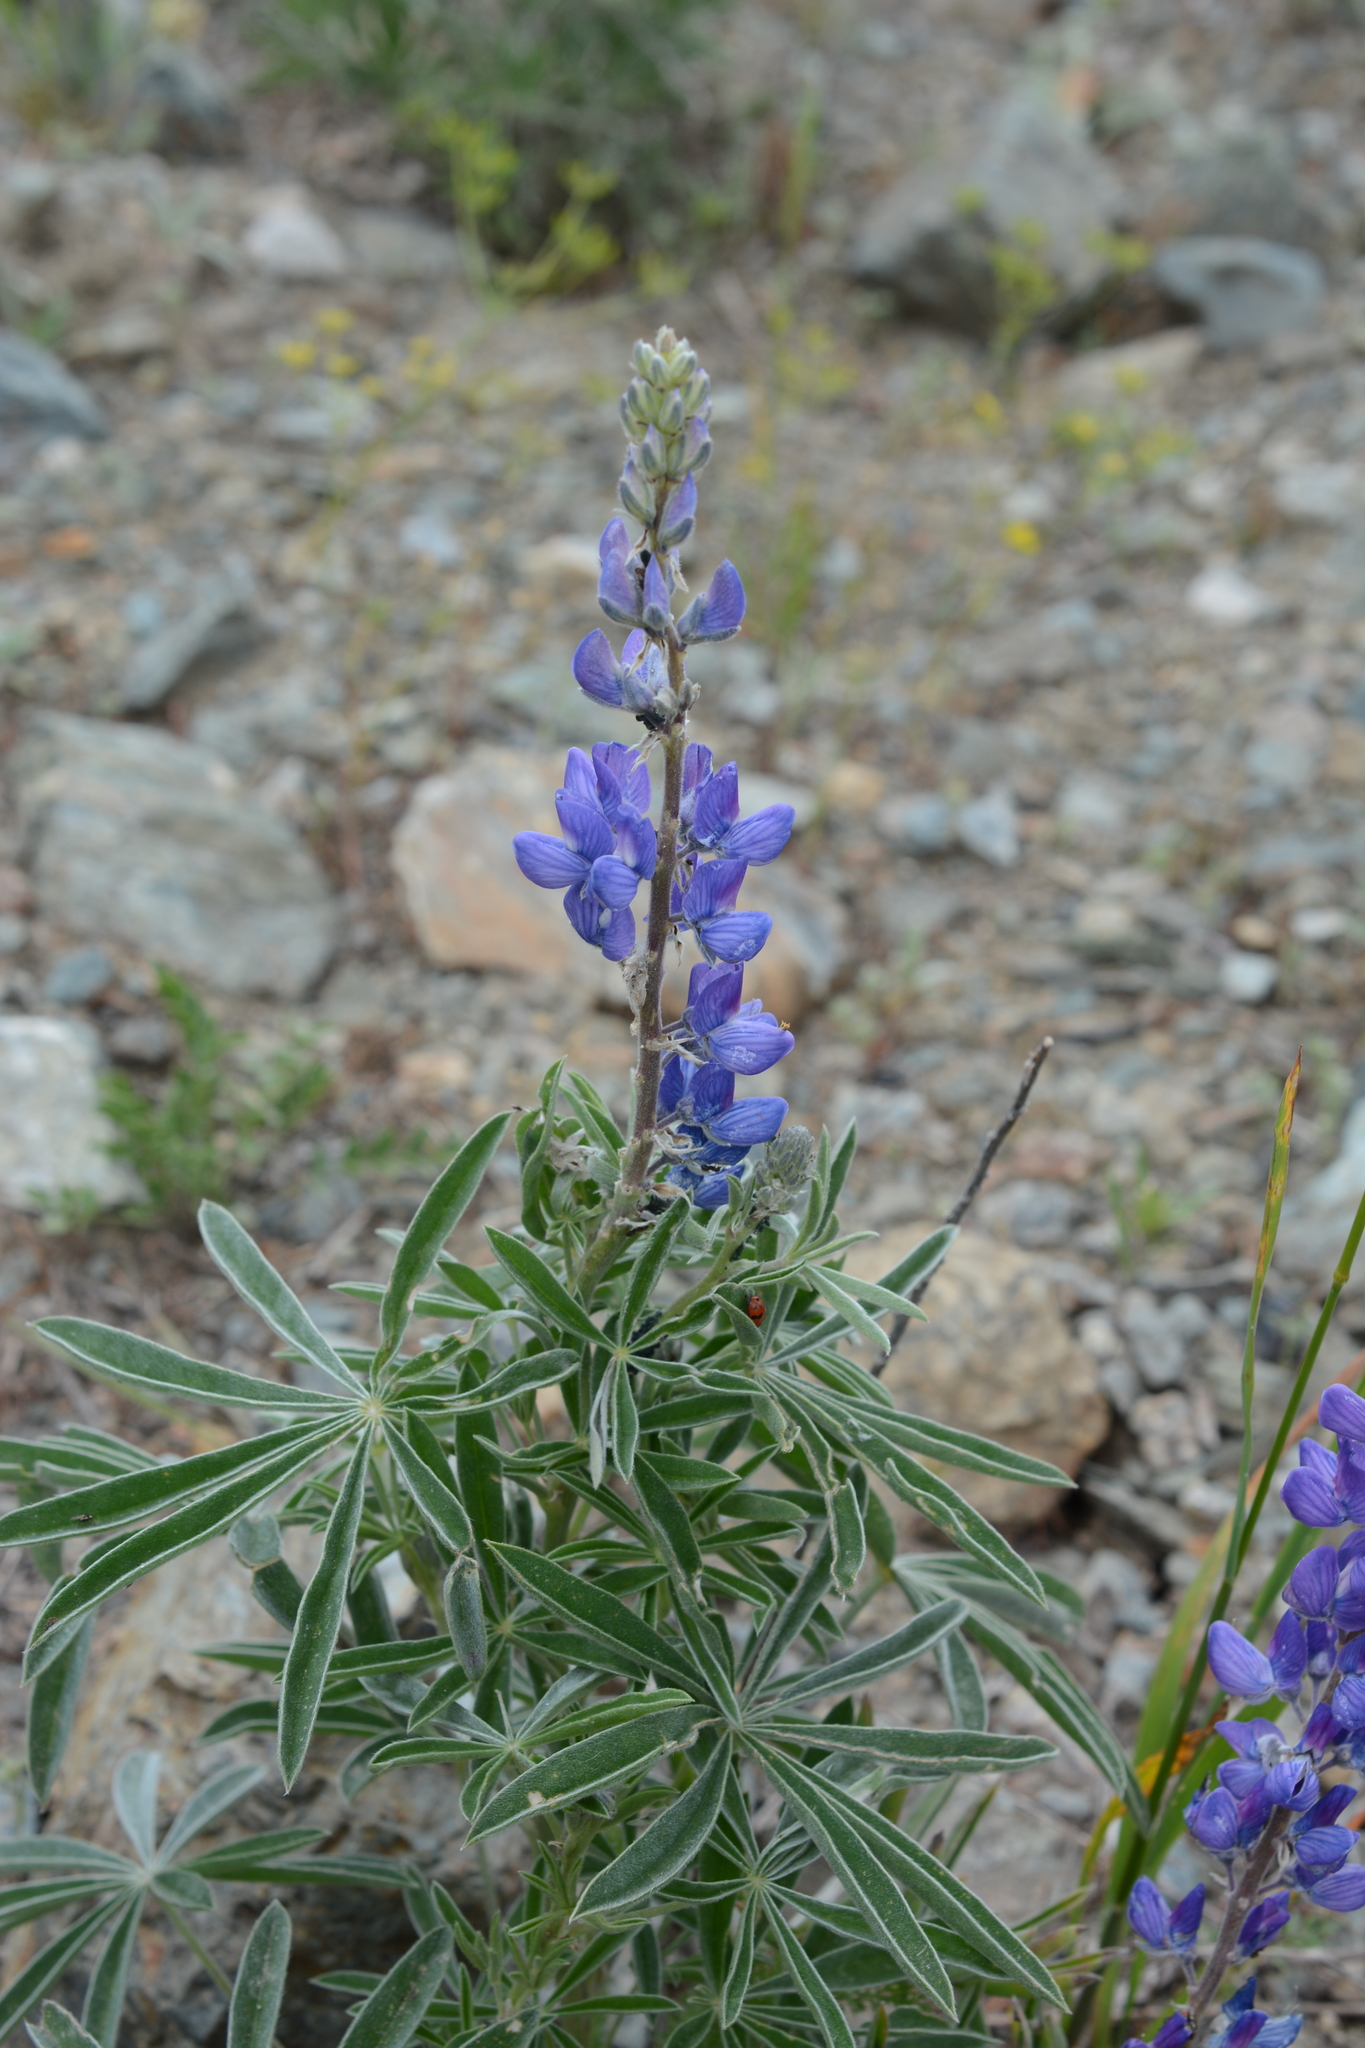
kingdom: Plantae
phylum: Tracheophyta
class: Magnoliopsida
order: Fabales
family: Fabaceae
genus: Lupinus
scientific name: Lupinus sericeus
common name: Silky lupine
